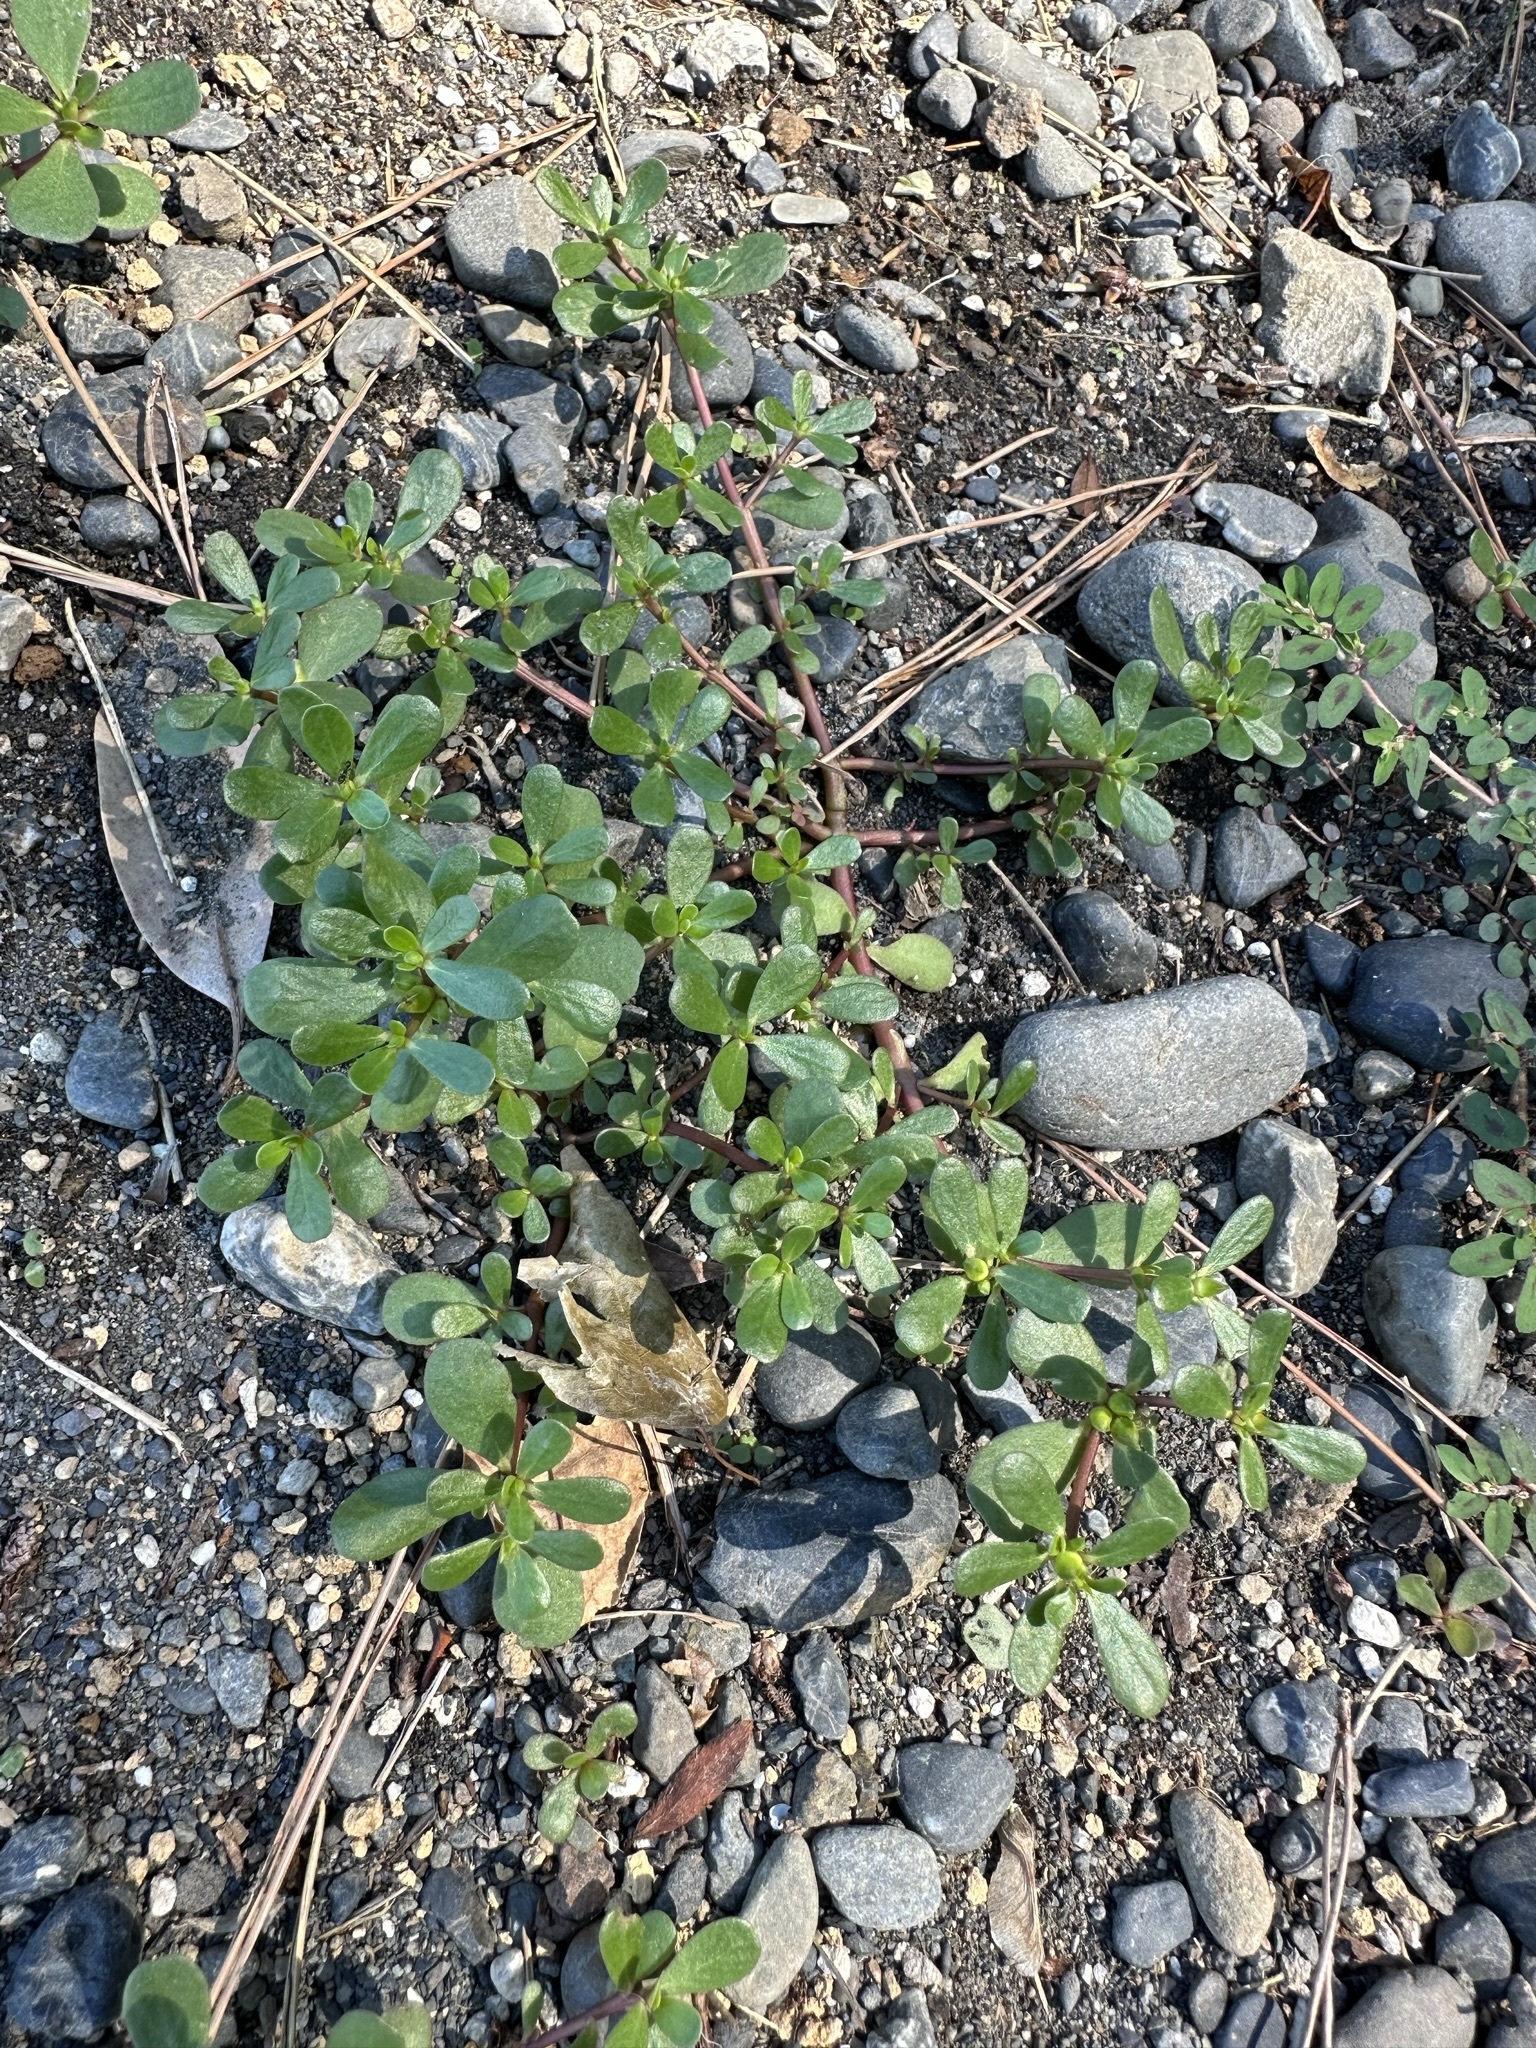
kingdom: Plantae
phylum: Tracheophyta
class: Magnoliopsida
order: Caryophyllales
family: Portulacaceae
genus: Portulaca
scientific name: Portulaca oleracea
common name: Common purslane
